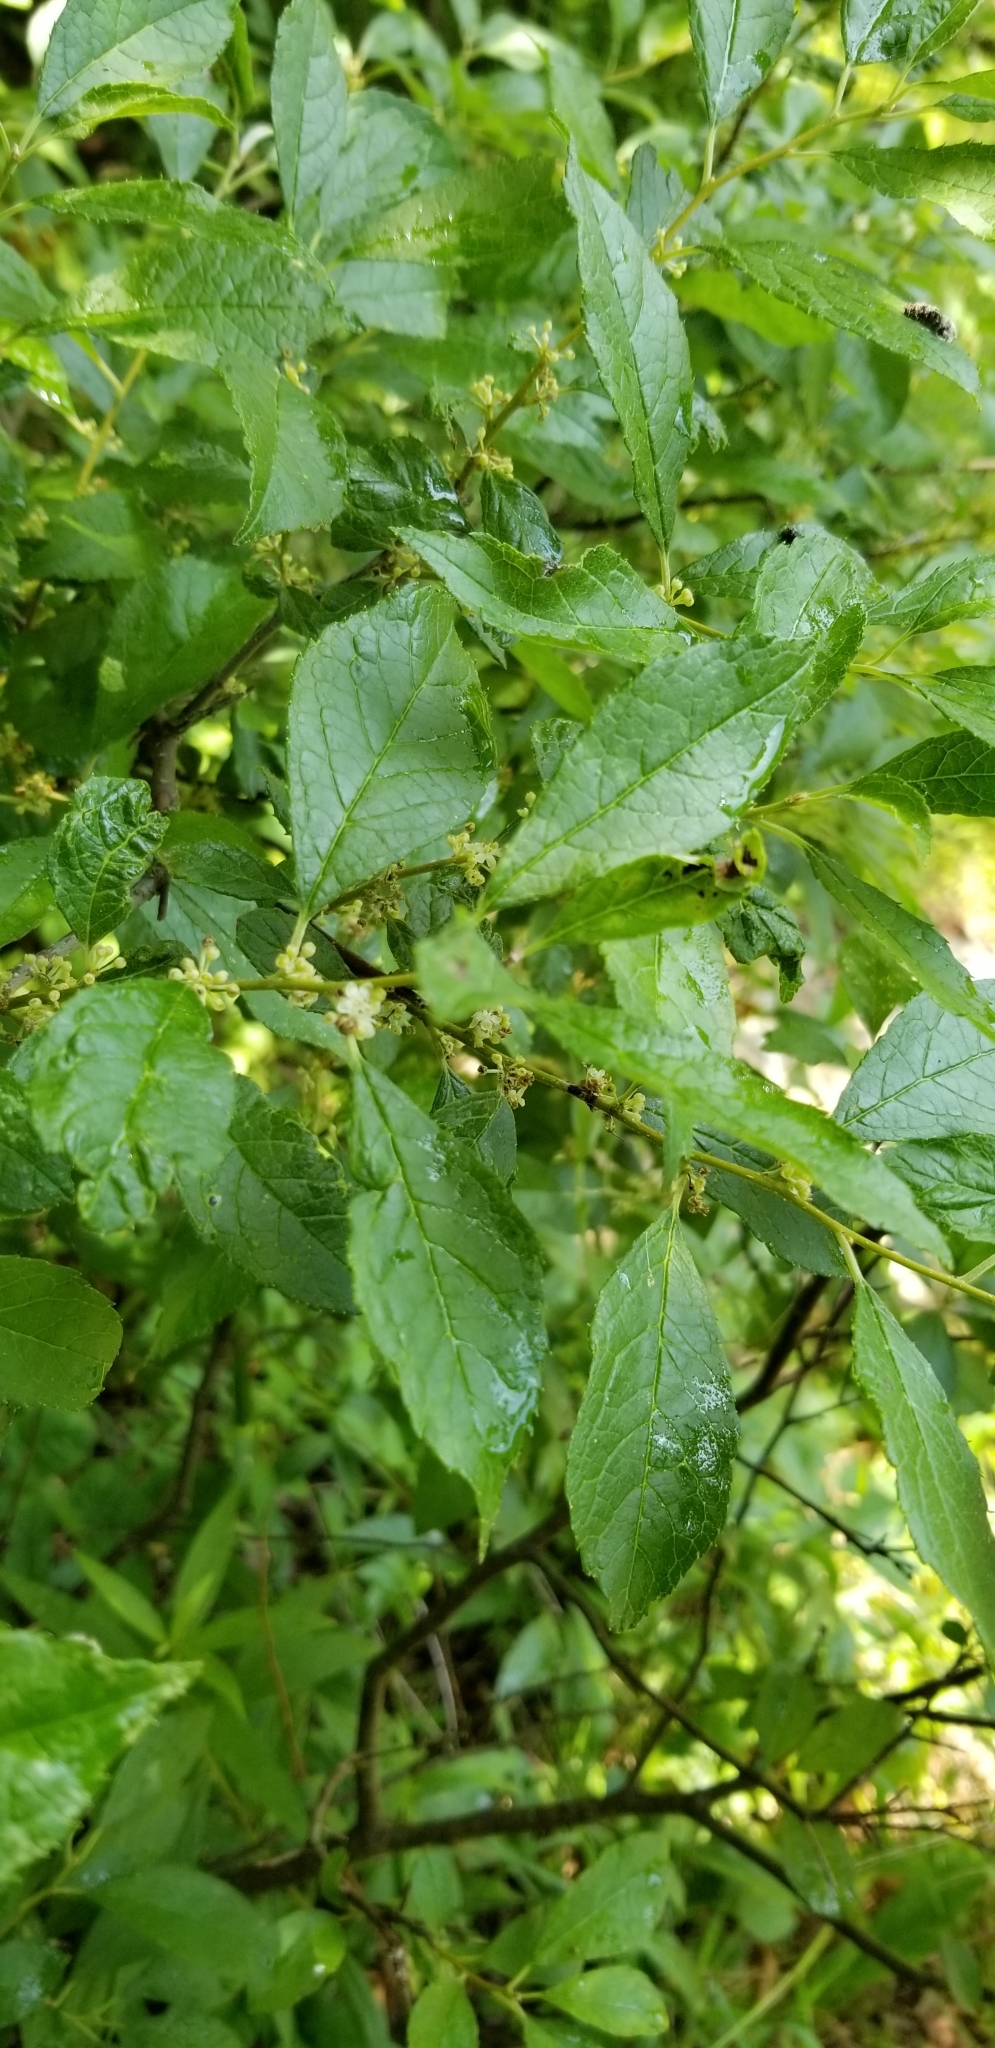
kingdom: Plantae
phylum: Tracheophyta
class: Magnoliopsida
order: Aquifoliales
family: Aquifoliaceae
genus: Ilex
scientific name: Ilex verticillata
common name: Virginia winterberry
